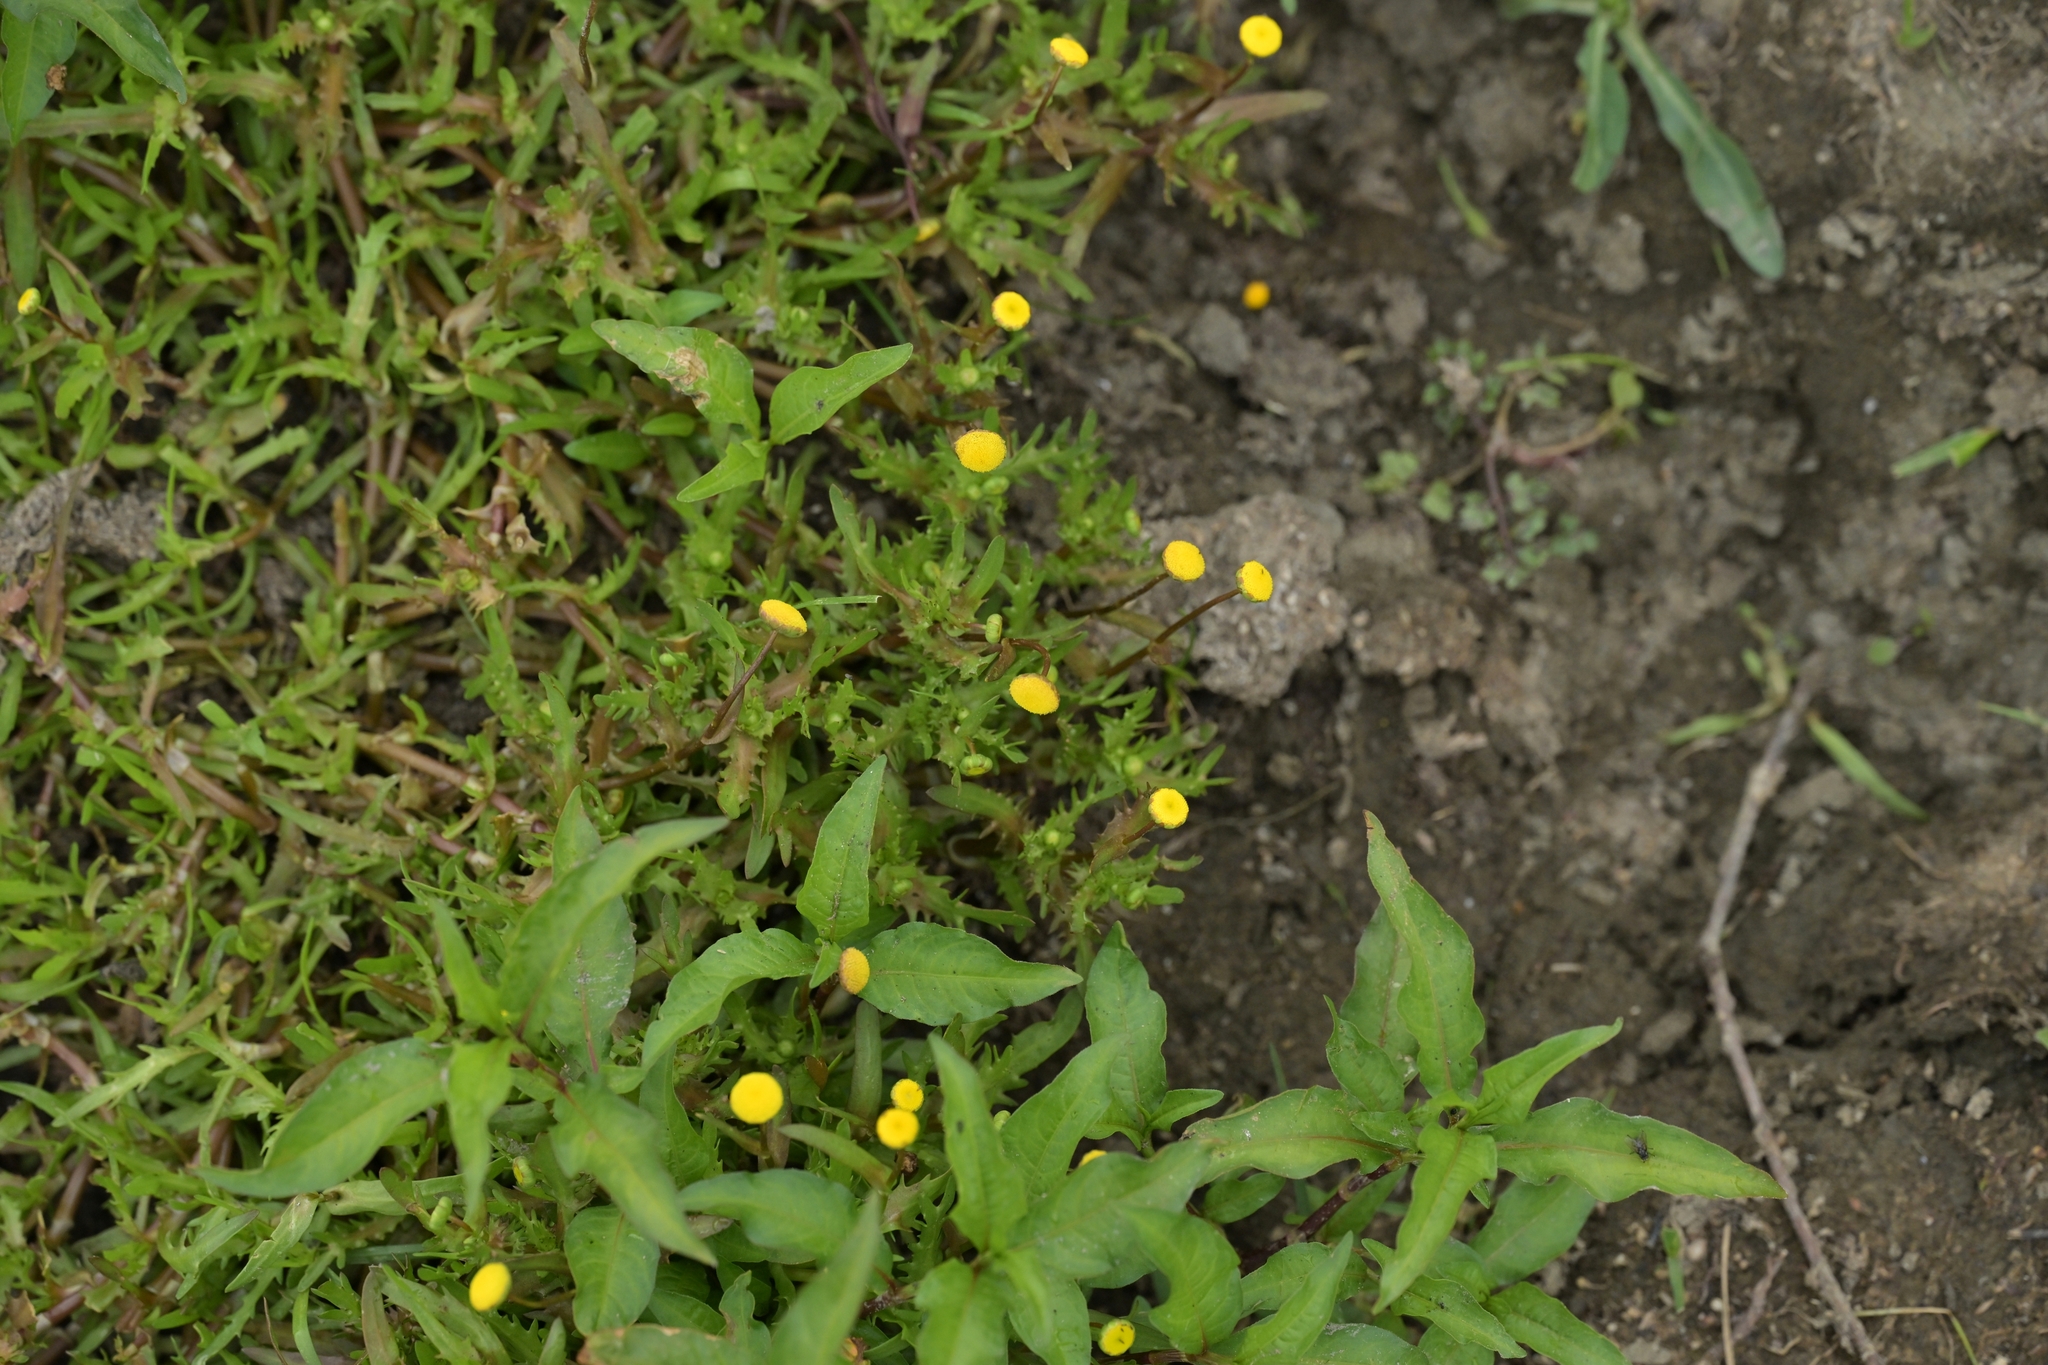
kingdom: Plantae
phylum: Tracheophyta
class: Magnoliopsida
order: Asterales
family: Asteraceae
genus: Cotula
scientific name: Cotula coronopifolia
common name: Buttonweed
